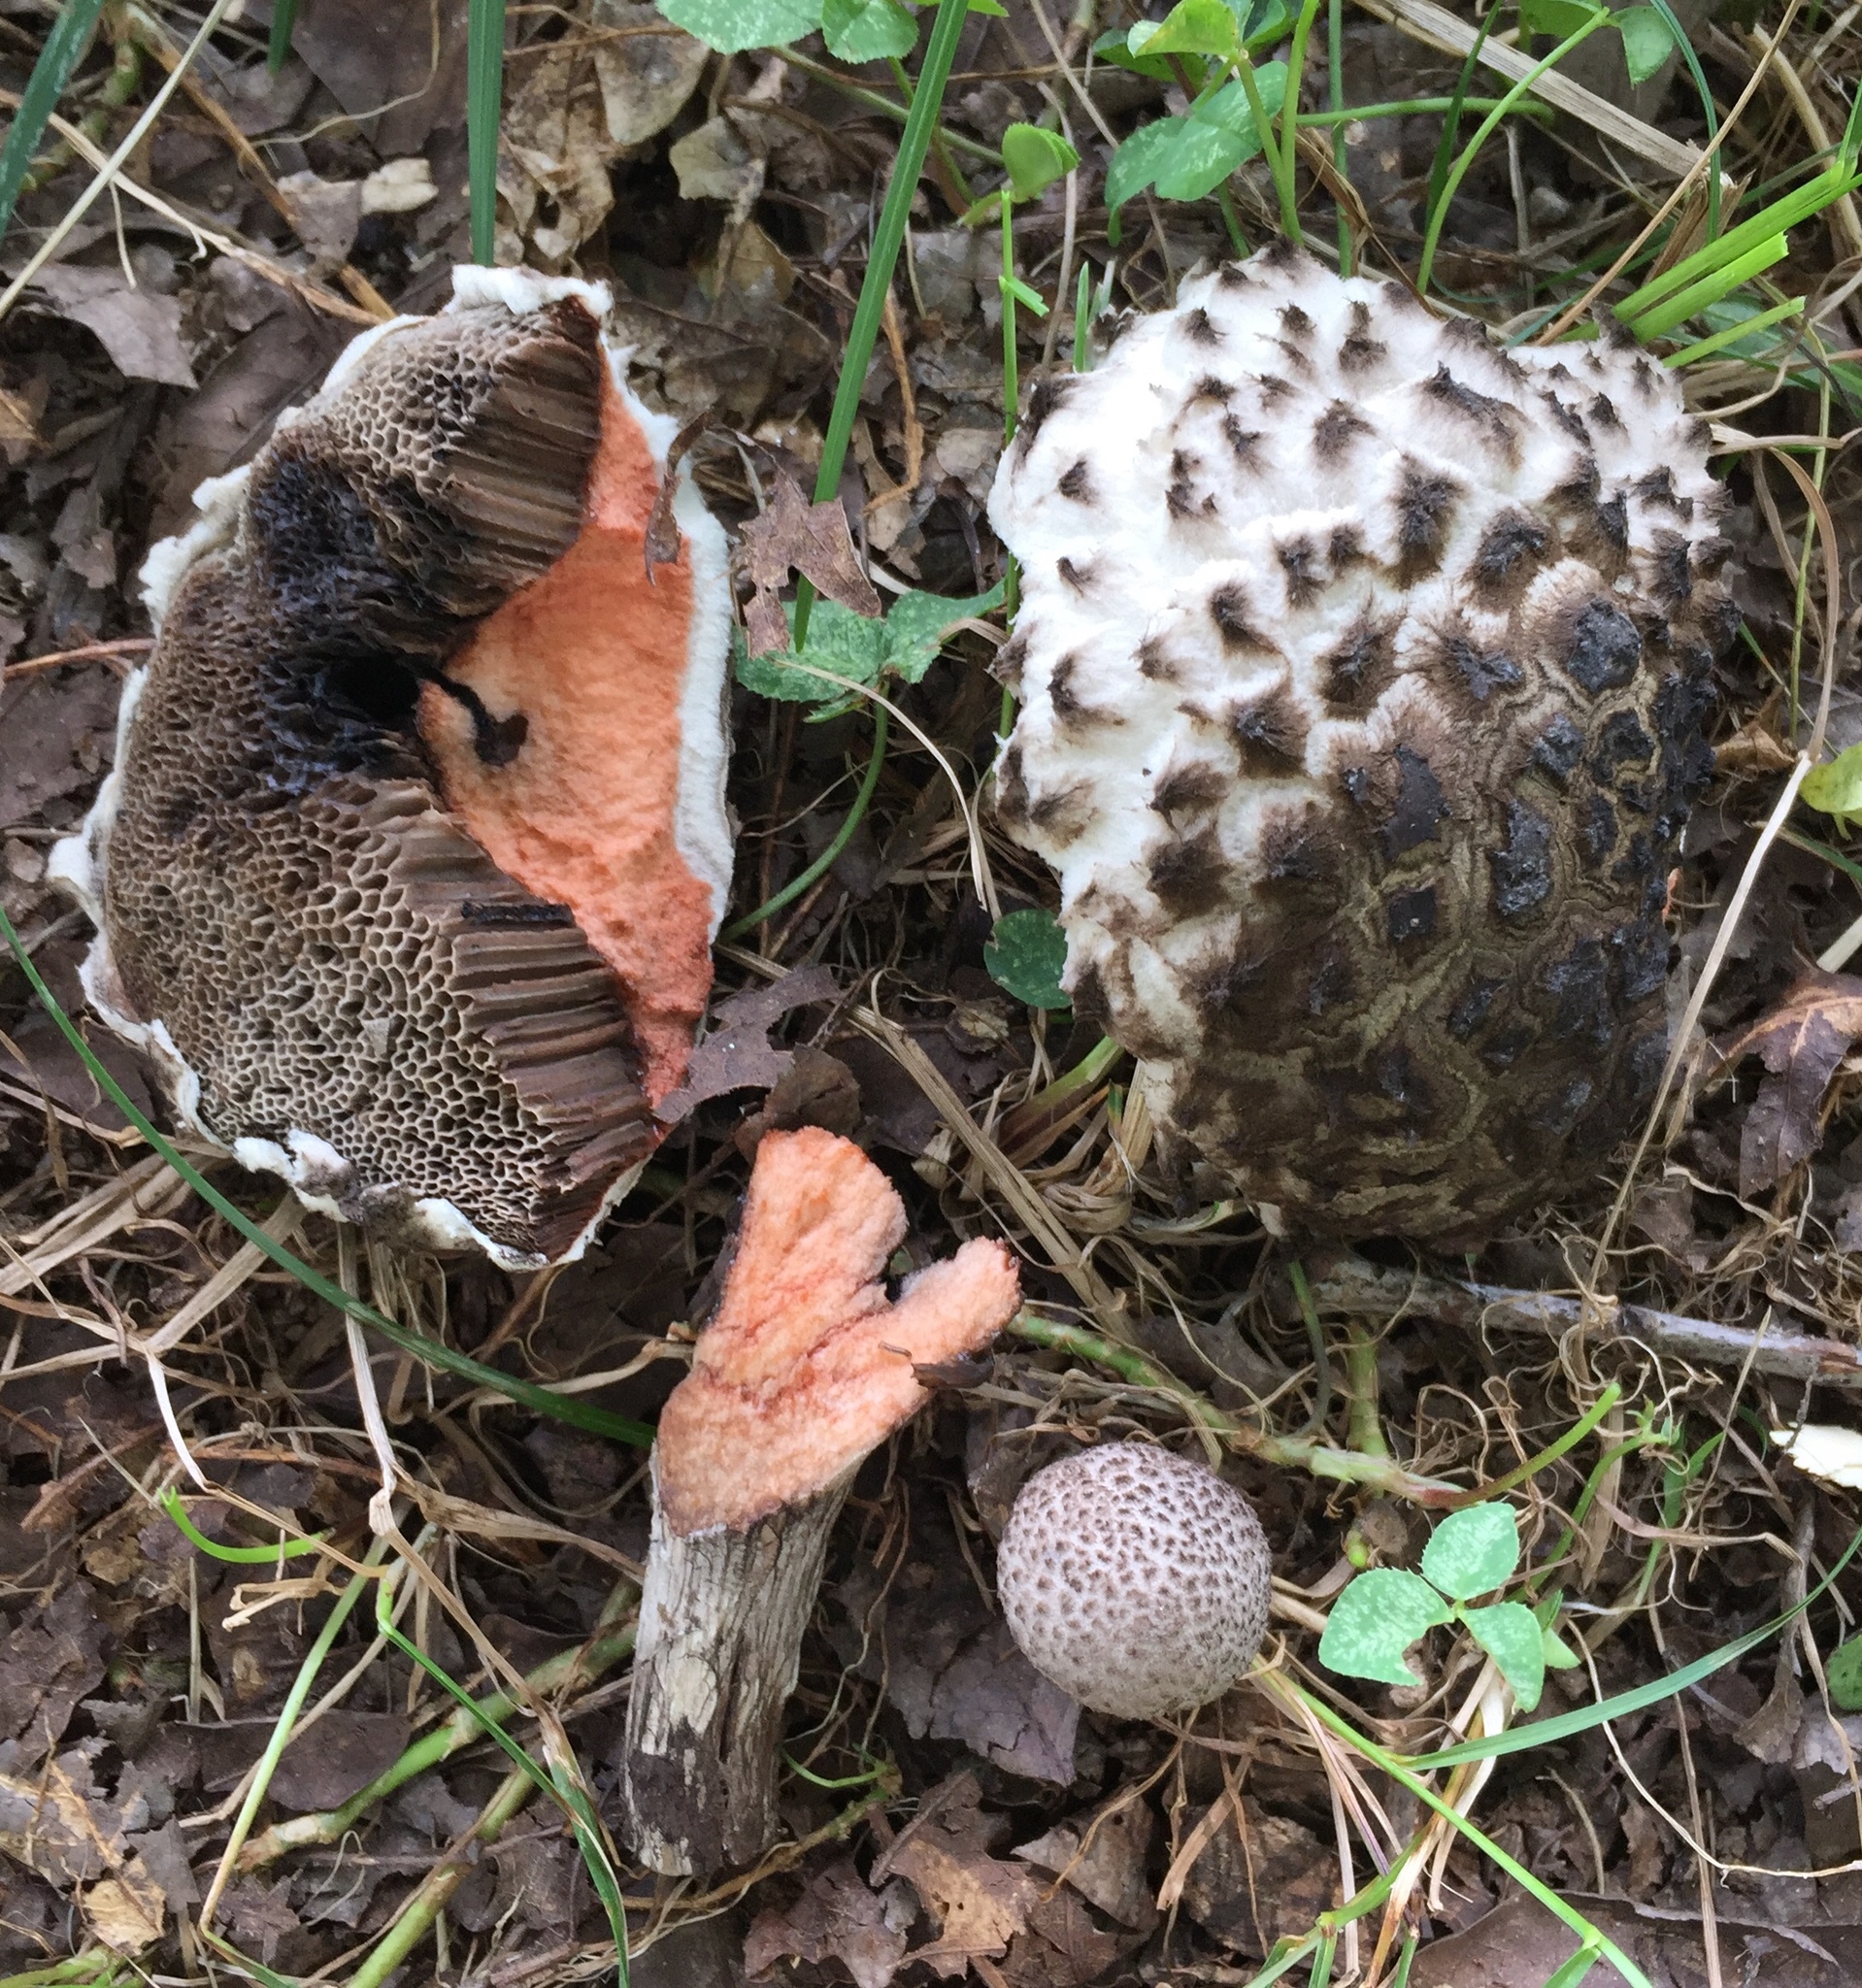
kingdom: Fungi
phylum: Basidiomycota
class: Agaricomycetes
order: Boletales
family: Boletaceae
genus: Strobilomyces
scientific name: Strobilomyces strobilaceus
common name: Old man of the woods
